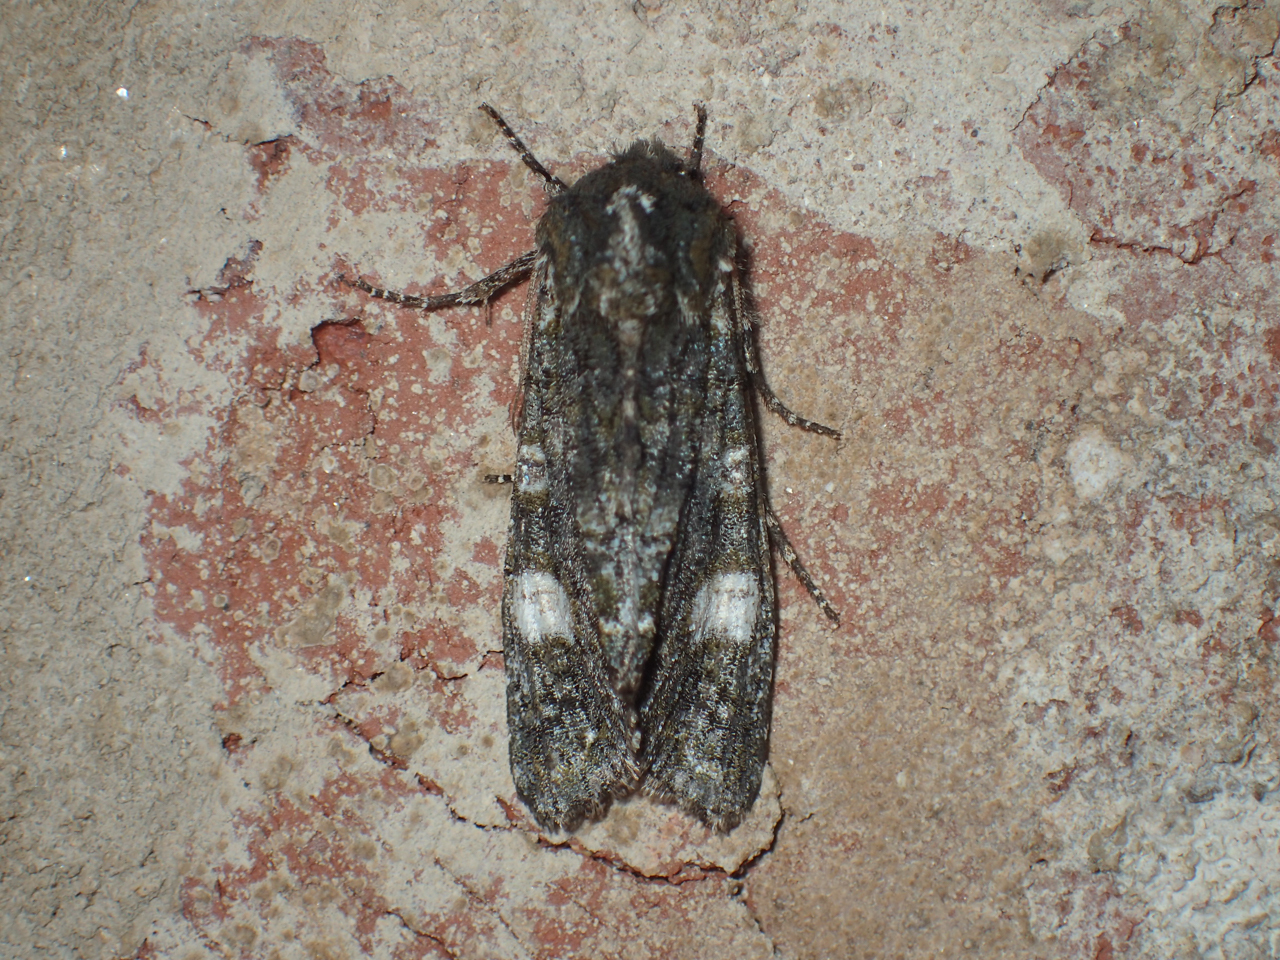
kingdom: Animalia
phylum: Arthropoda
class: Insecta
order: Lepidoptera
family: Noctuidae
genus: Psaphida
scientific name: Psaphida grotei
